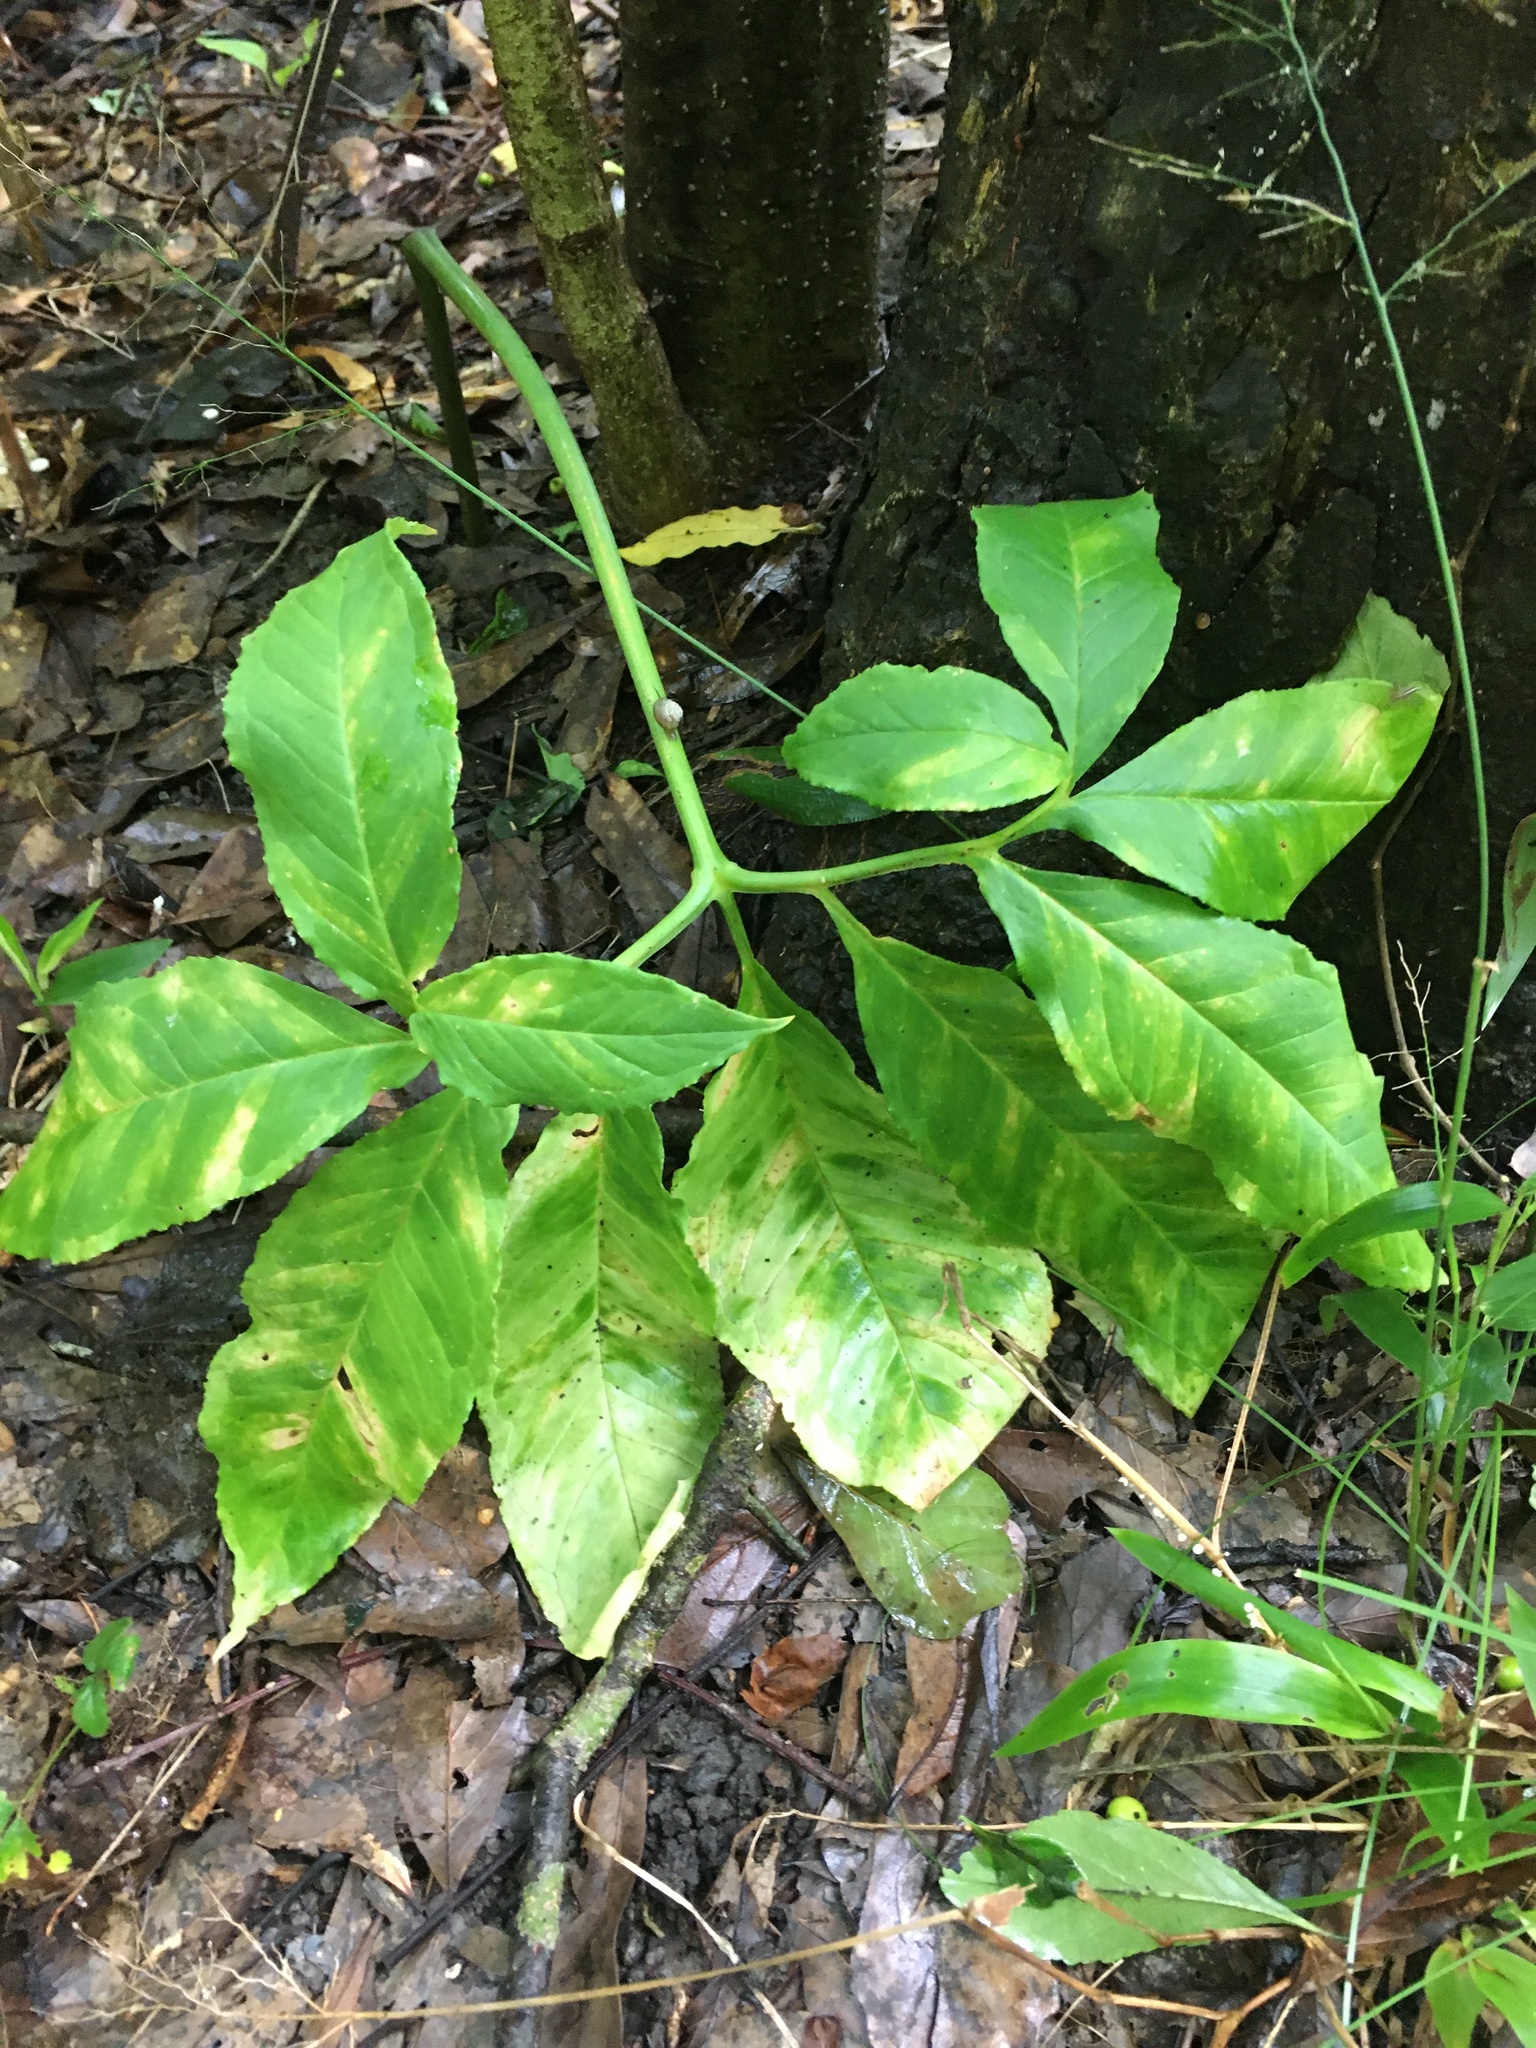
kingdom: Plantae
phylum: Tracheophyta
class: Liliopsida
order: Alismatales
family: Araceae
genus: Arisaema
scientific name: Arisaema dracontium
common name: Dragon-arum
